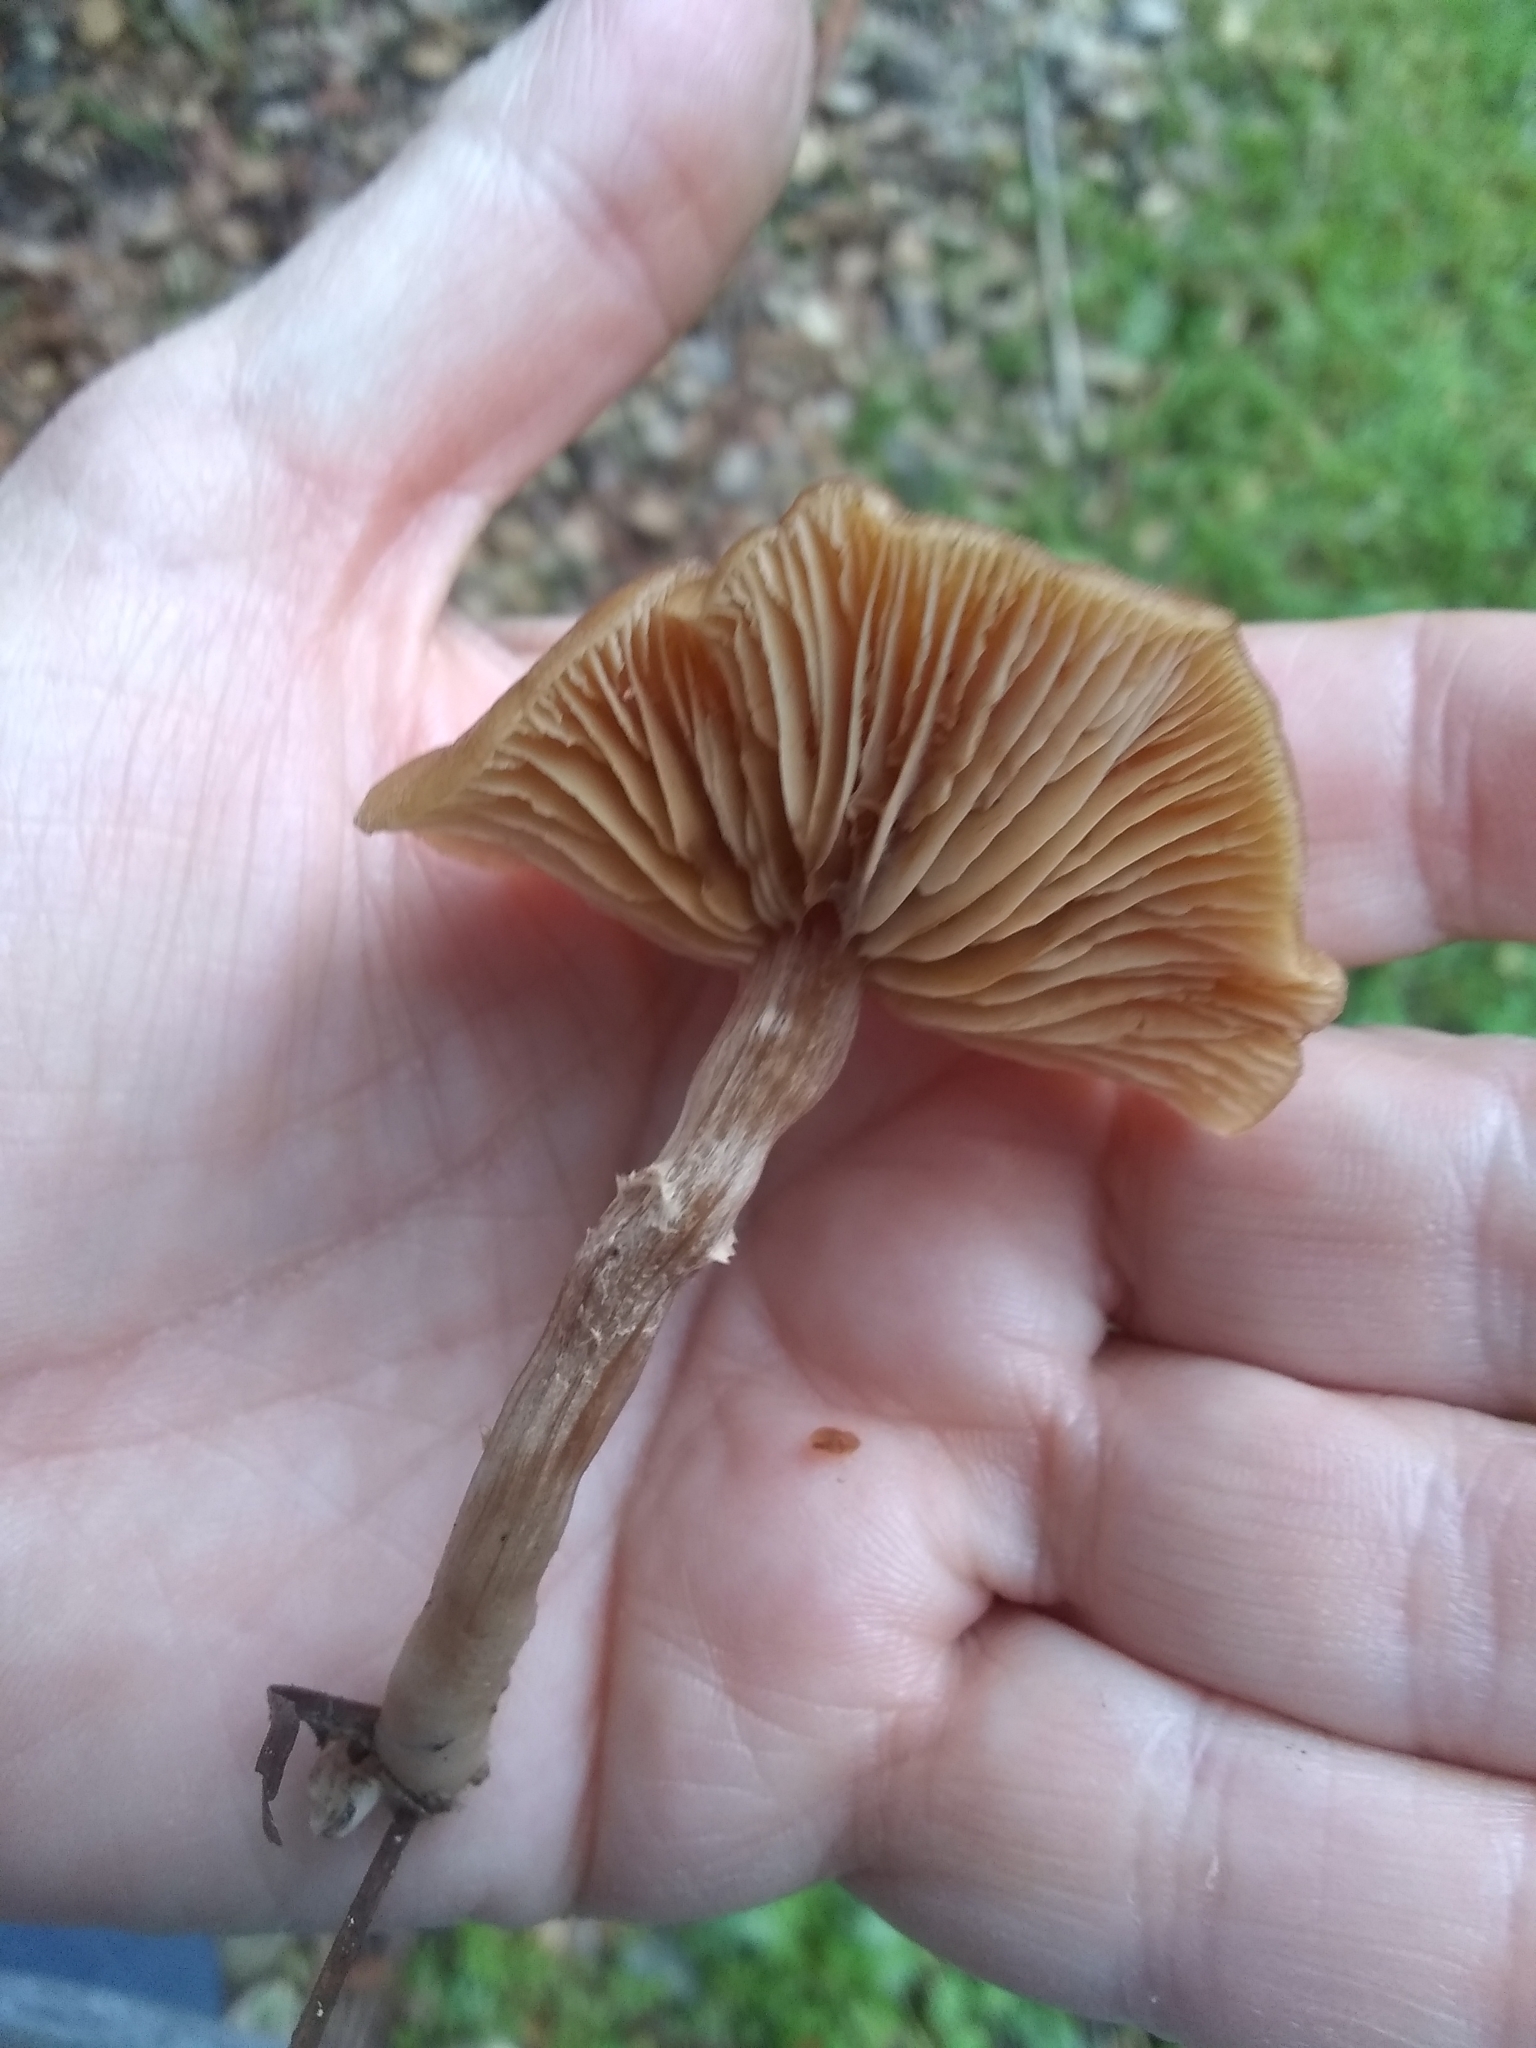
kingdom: Fungi
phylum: Basidiomycota
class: Agaricomycetes
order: Agaricales
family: Tubariaceae
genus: Tubaria
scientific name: Tubaria furfuracea
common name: Scurfy twiglet
